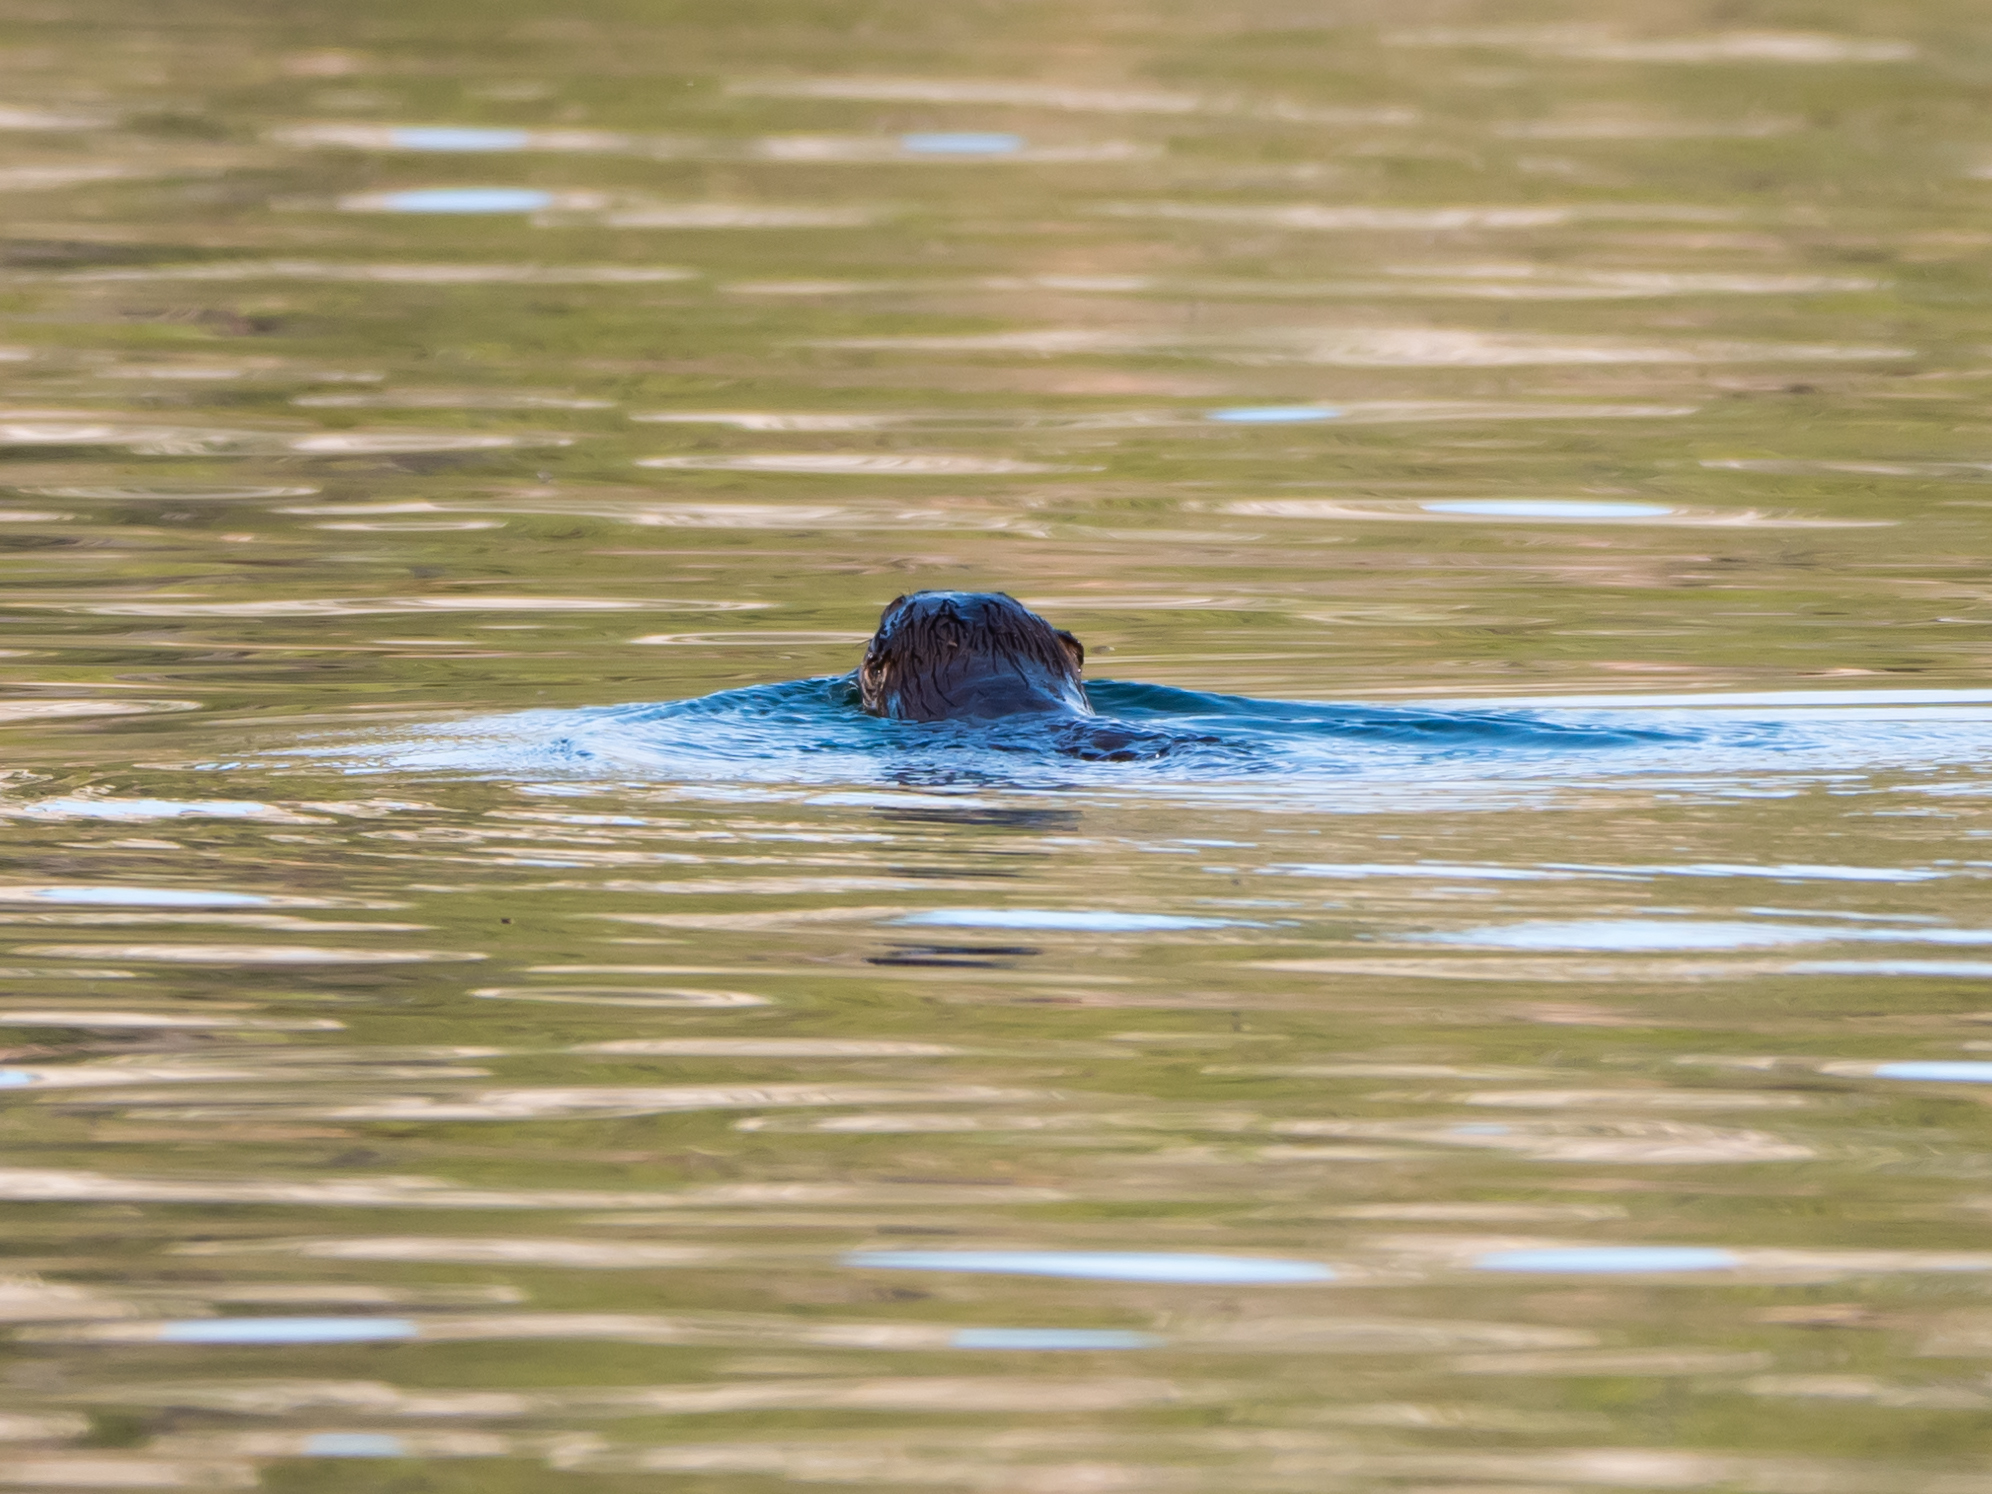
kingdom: Animalia
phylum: Chordata
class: Mammalia
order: Carnivora
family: Mustelidae
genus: Lontra
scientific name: Lontra canadensis
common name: North american river otter
